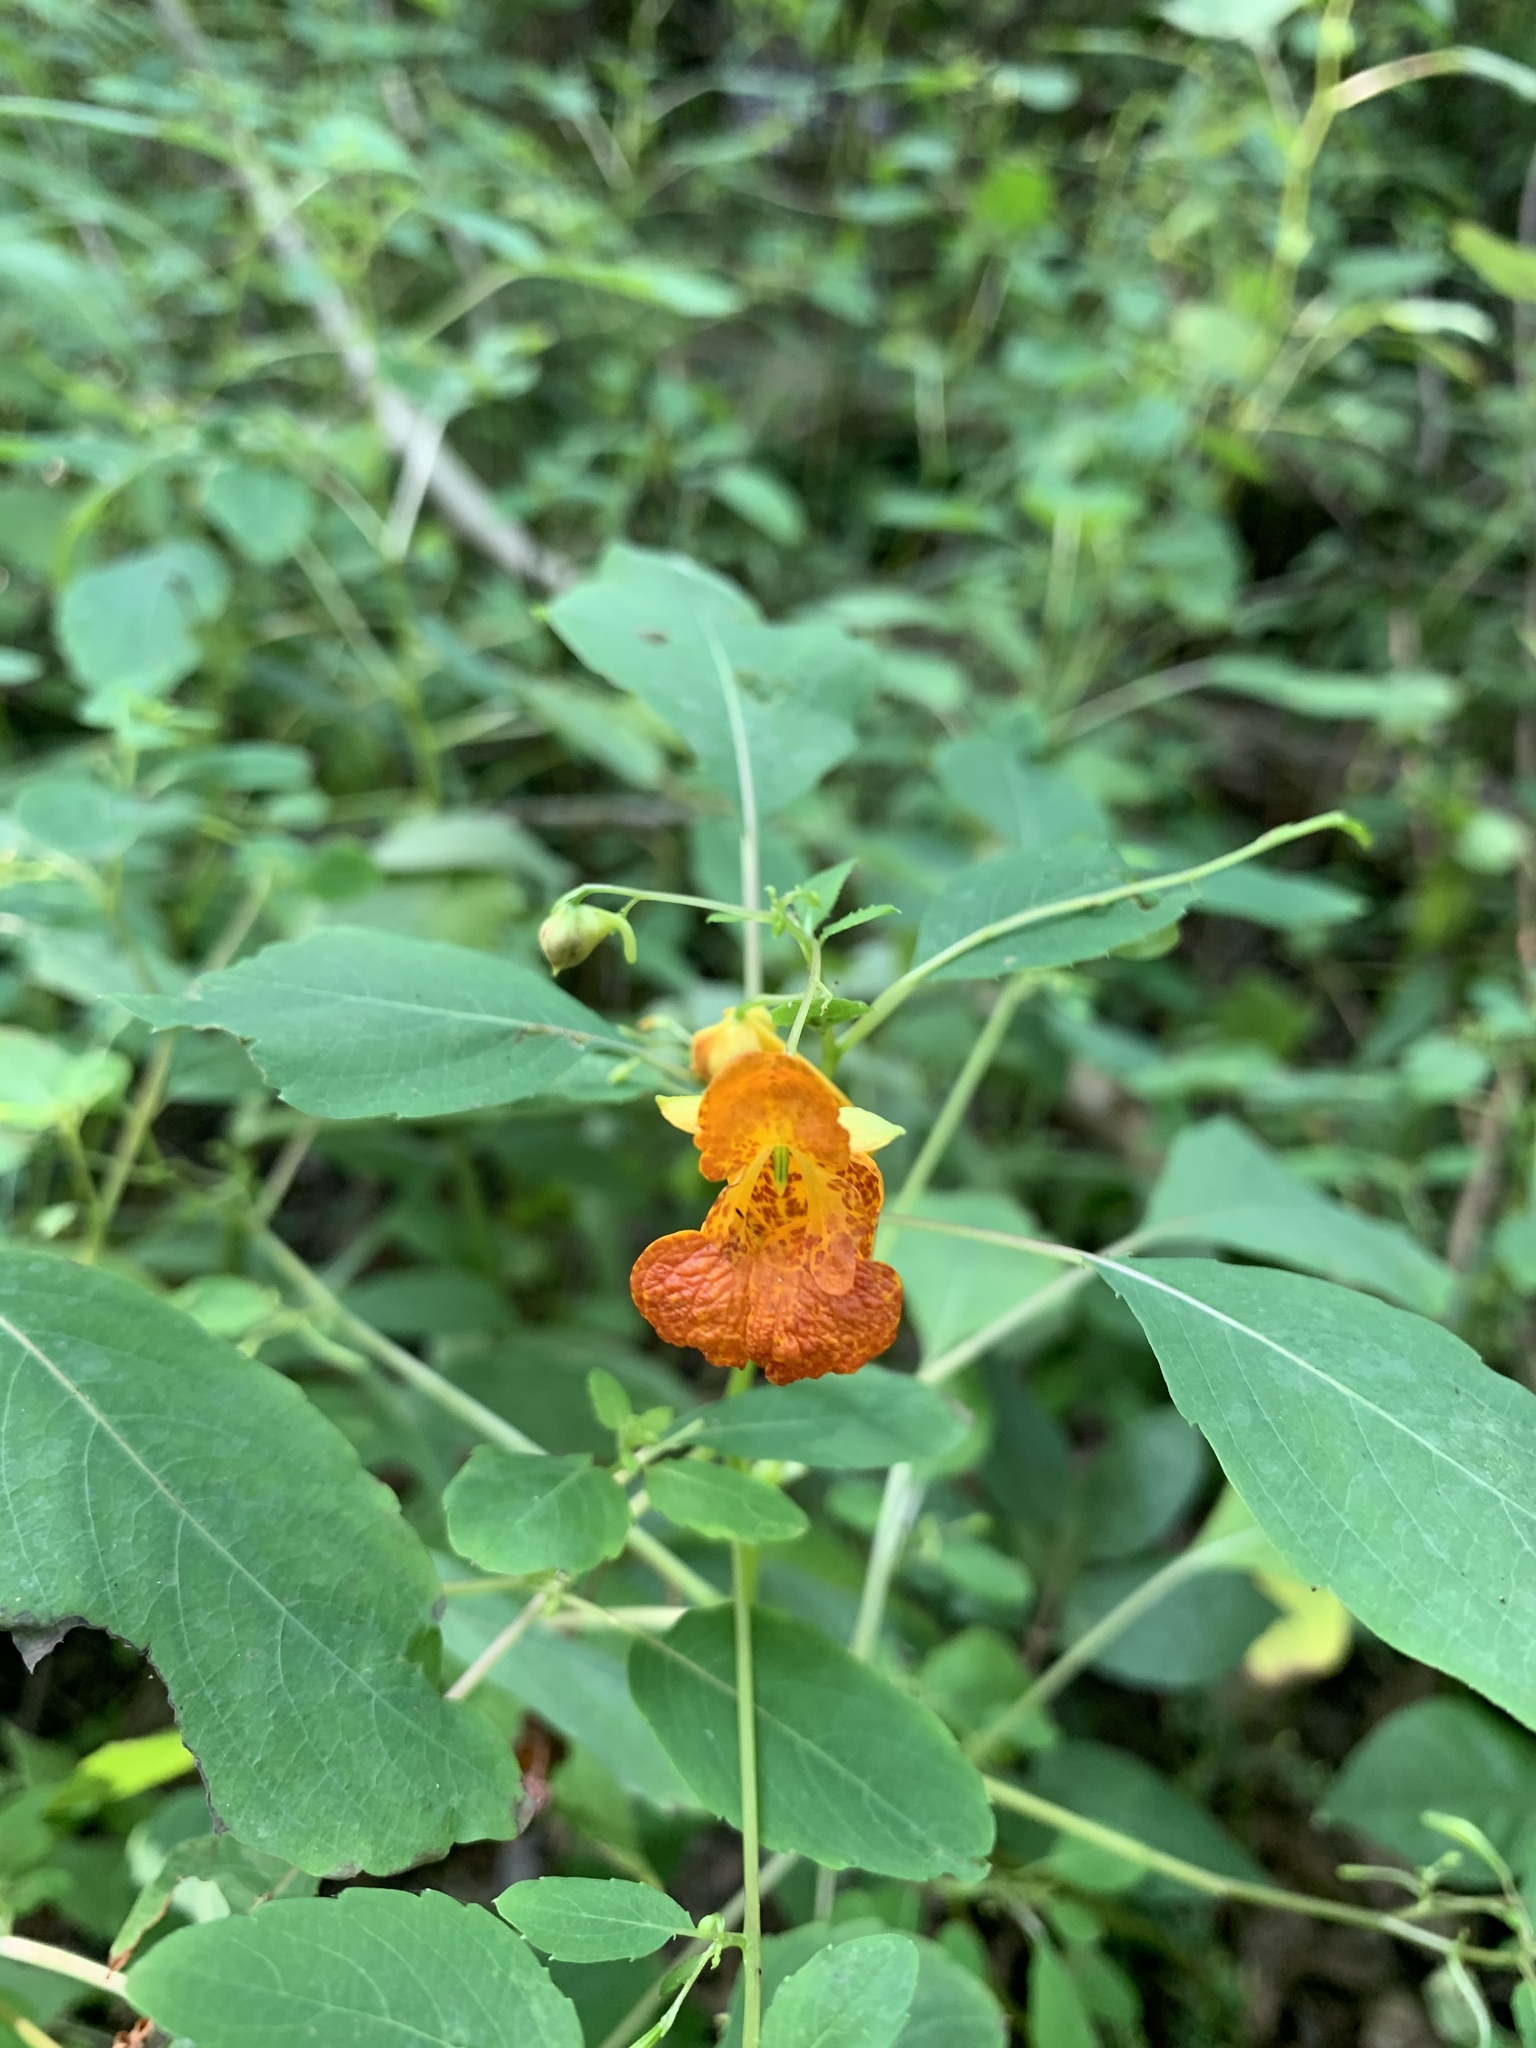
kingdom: Plantae
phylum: Tracheophyta
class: Magnoliopsida
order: Ericales
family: Balsaminaceae
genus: Impatiens
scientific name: Impatiens capensis
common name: Orange balsam
